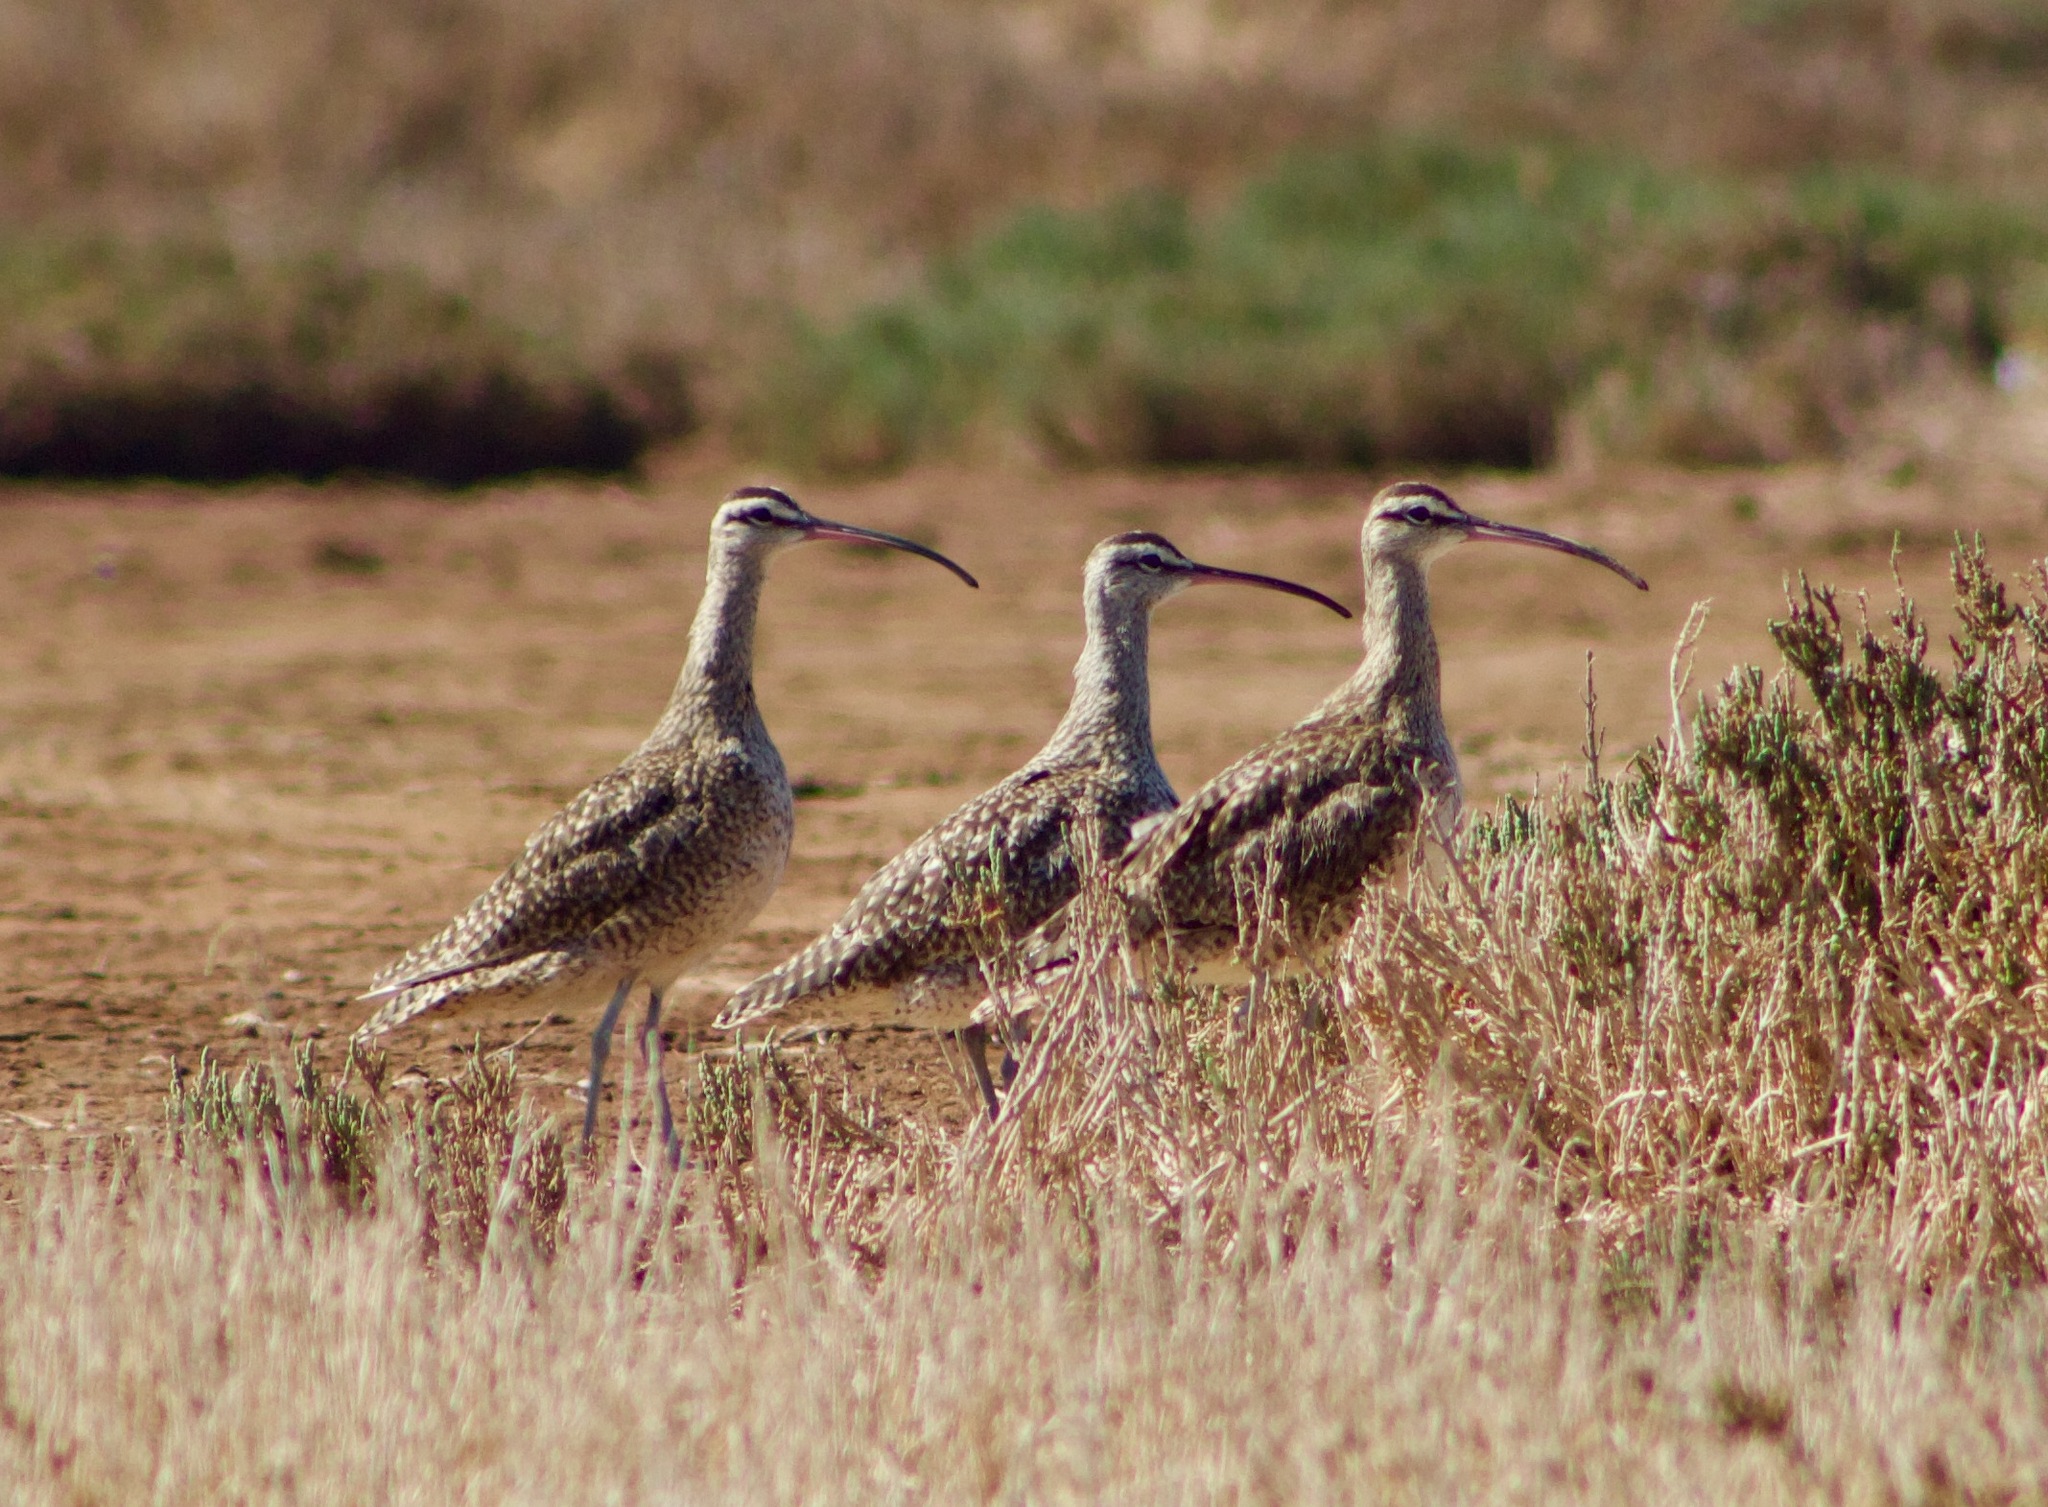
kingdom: Animalia
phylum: Chordata
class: Aves
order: Charadriiformes
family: Scolopacidae
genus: Numenius
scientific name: Numenius hudsonicus
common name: Hudsonian whimbrel
